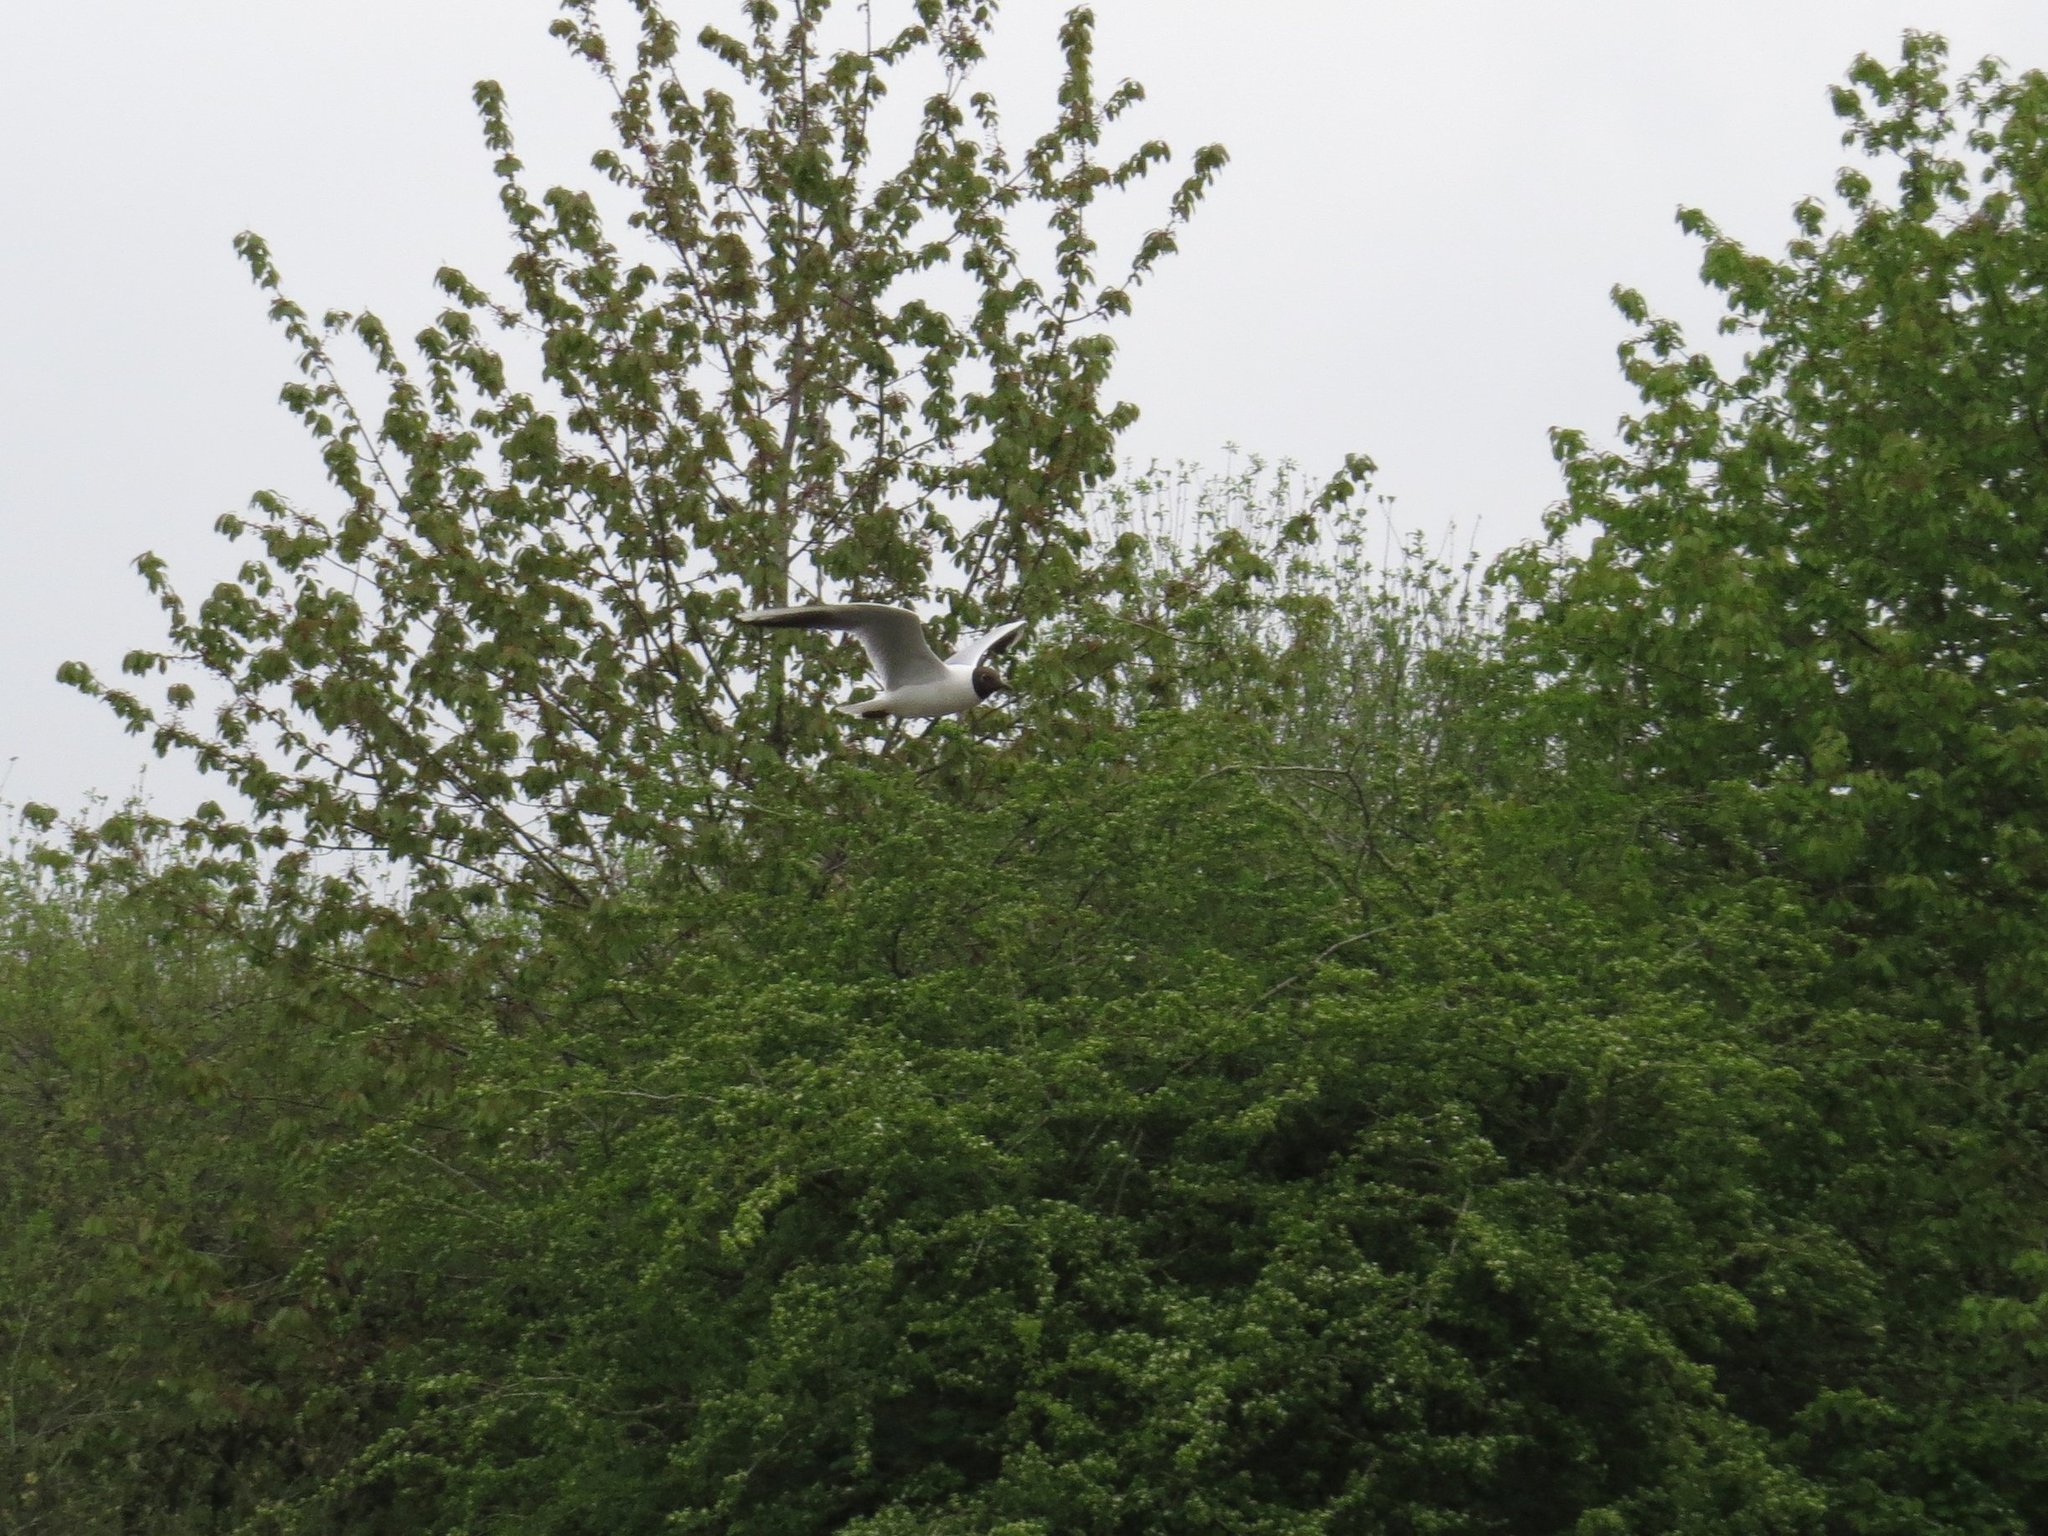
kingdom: Animalia
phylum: Chordata
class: Aves
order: Charadriiformes
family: Laridae
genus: Chroicocephalus
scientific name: Chroicocephalus ridibundus
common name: Black-headed gull
